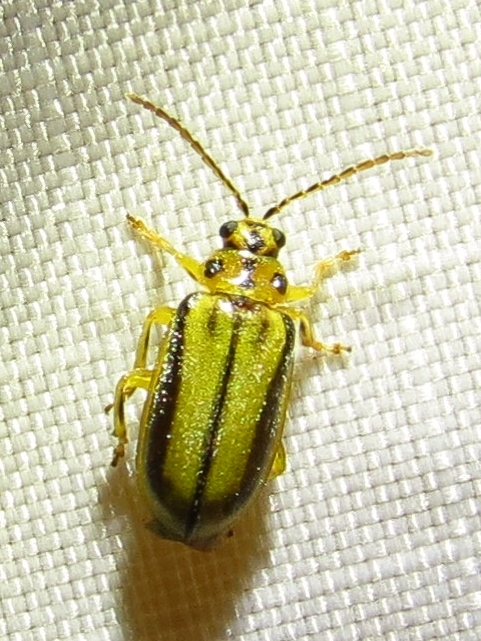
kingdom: Animalia
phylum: Arthropoda
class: Insecta
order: Coleoptera
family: Chrysomelidae
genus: Xanthogaleruca
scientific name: Xanthogaleruca luteola
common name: Elm leaf beetle
